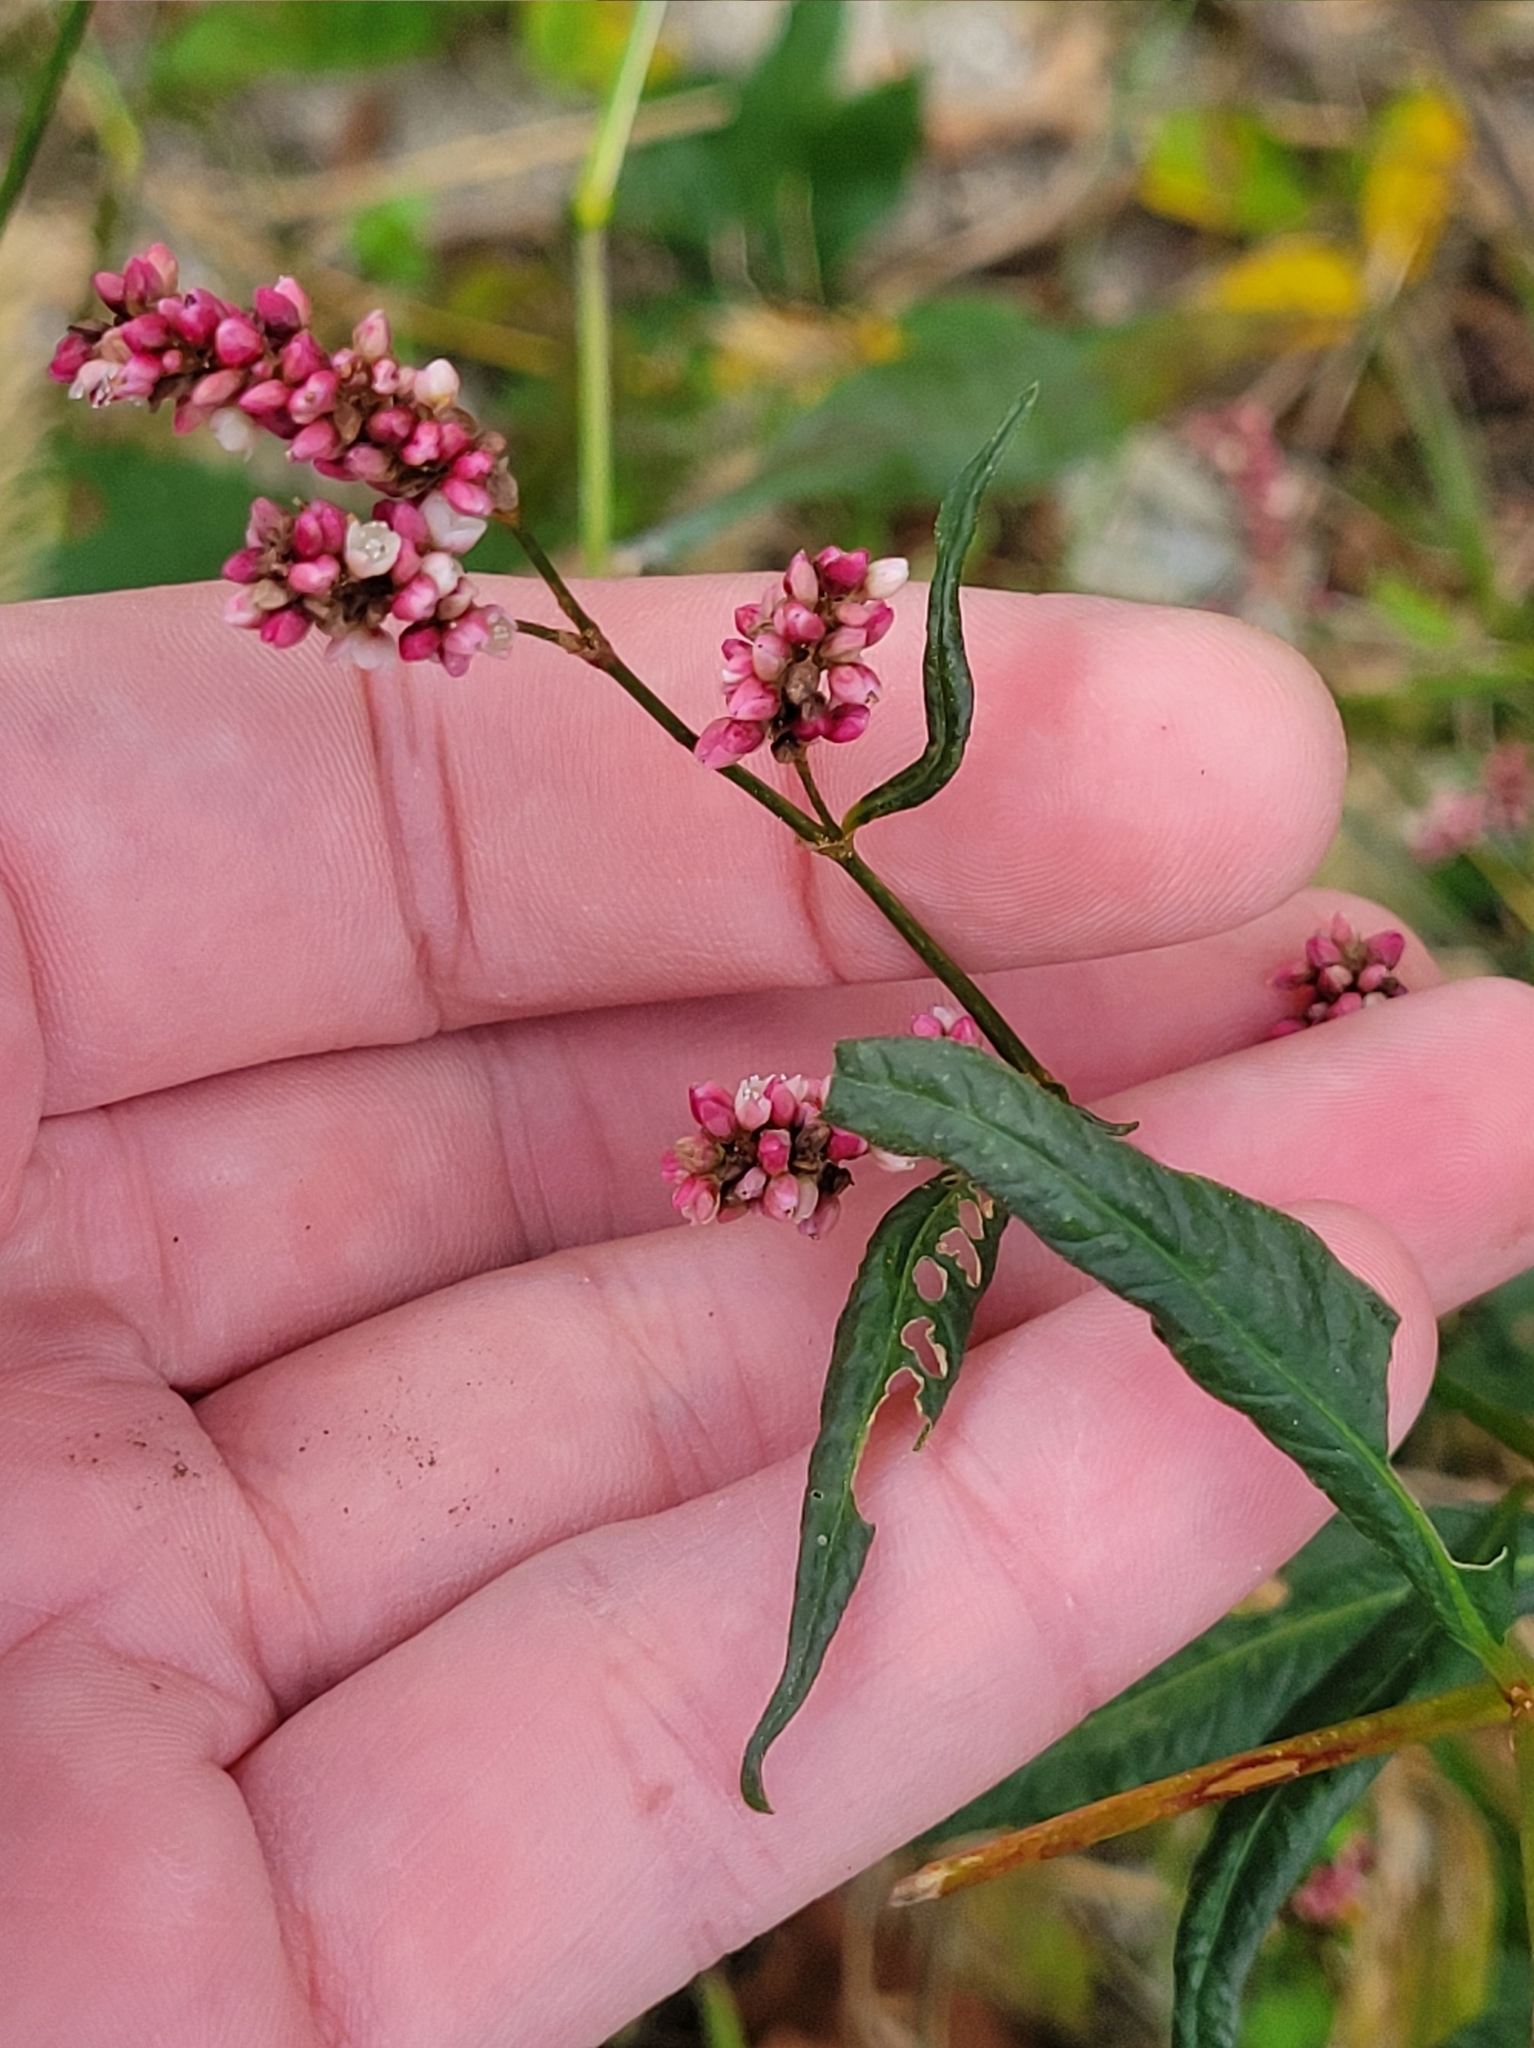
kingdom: Plantae
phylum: Tracheophyta
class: Magnoliopsida
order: Caryophyllales
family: Polygonaceae
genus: Persicaria
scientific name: Persicaria maculosa
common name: Redshank
